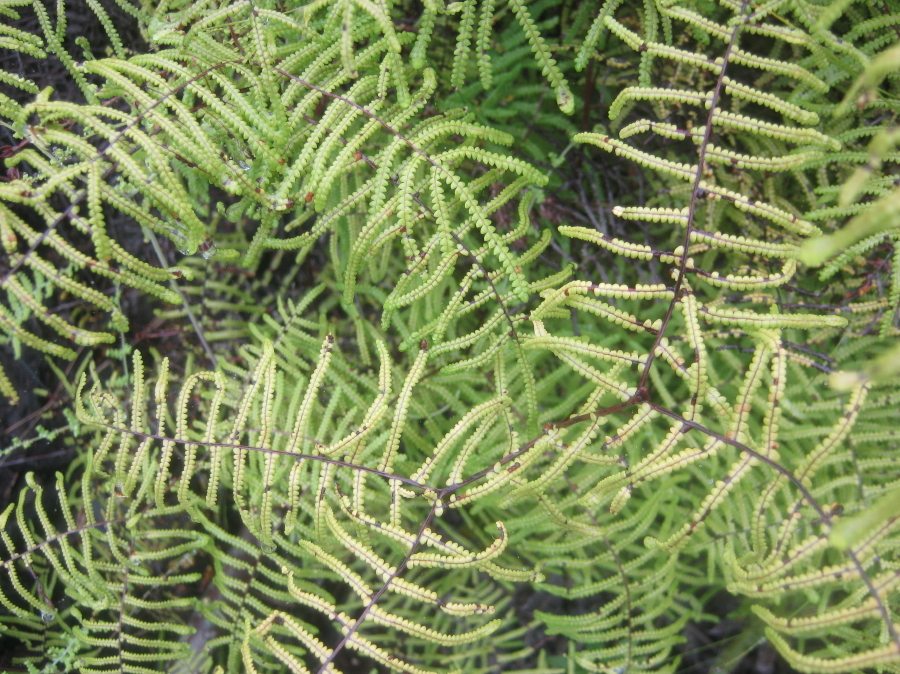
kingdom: Plantae
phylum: Tracheophyta
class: Polypodiopsida
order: Gleicheniales
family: Gleicheniaceae
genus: Gleichenia
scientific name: Gleichenia polypodioides
